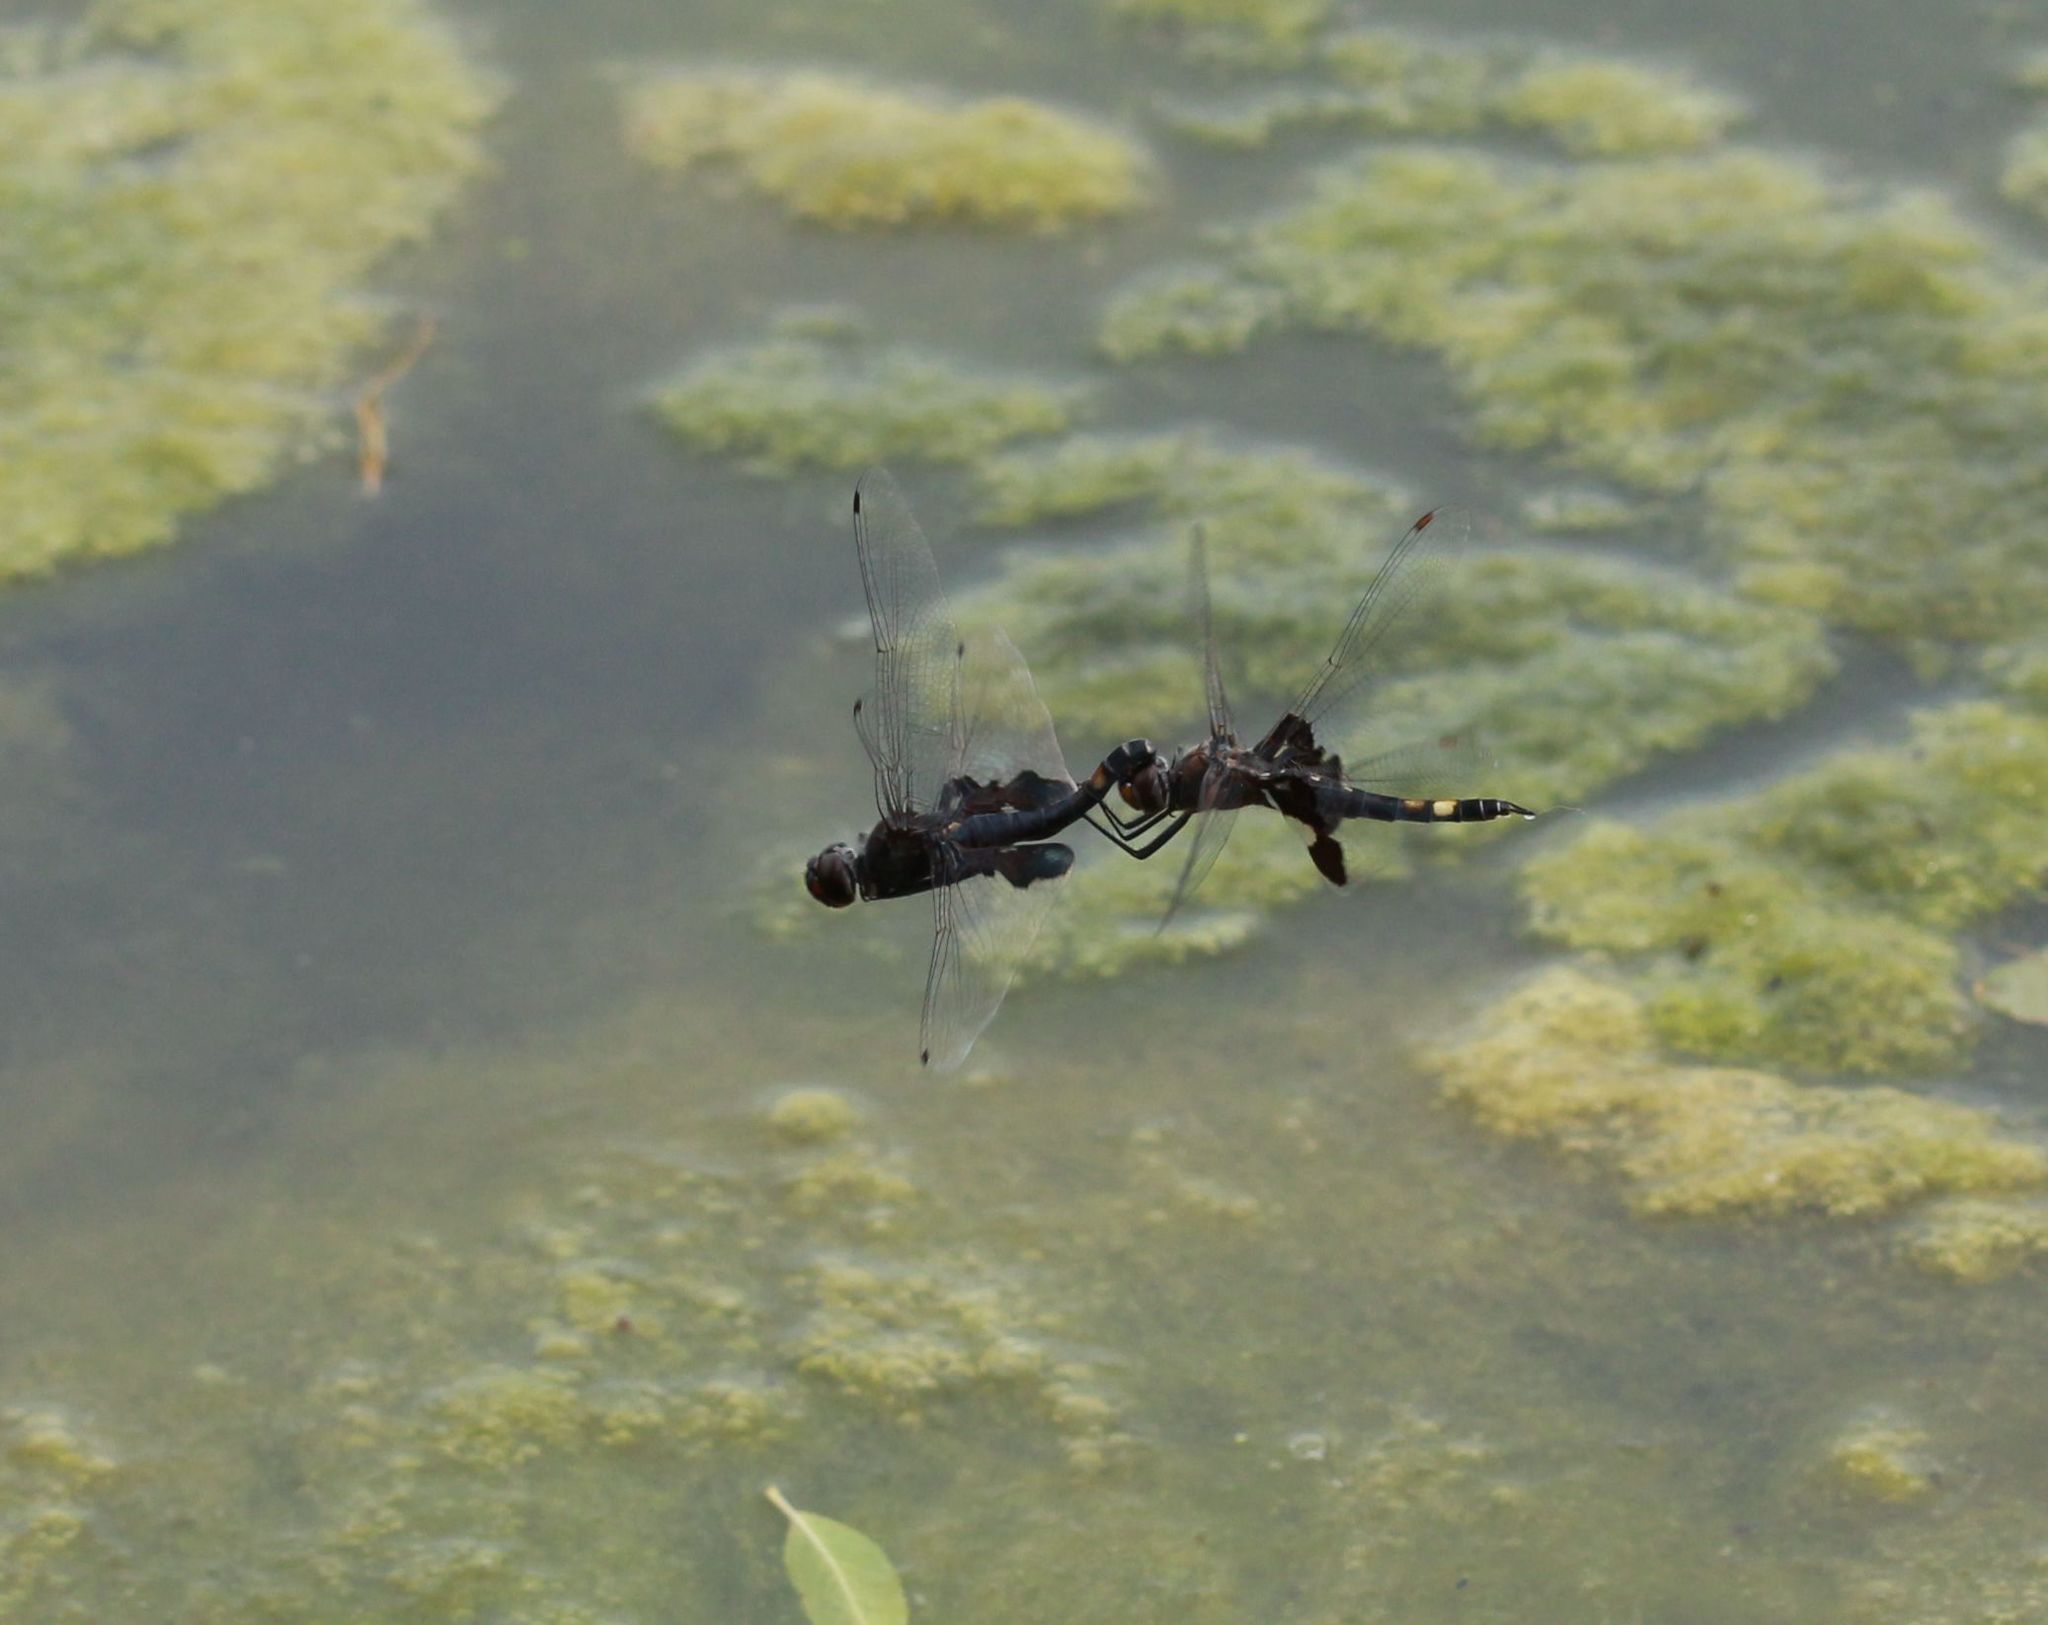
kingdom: Animalia
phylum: Arthropoda
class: Insecta
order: Odonata
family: Libellulidae
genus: Tramea
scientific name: Tramea lacerata
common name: Black saddlebags
